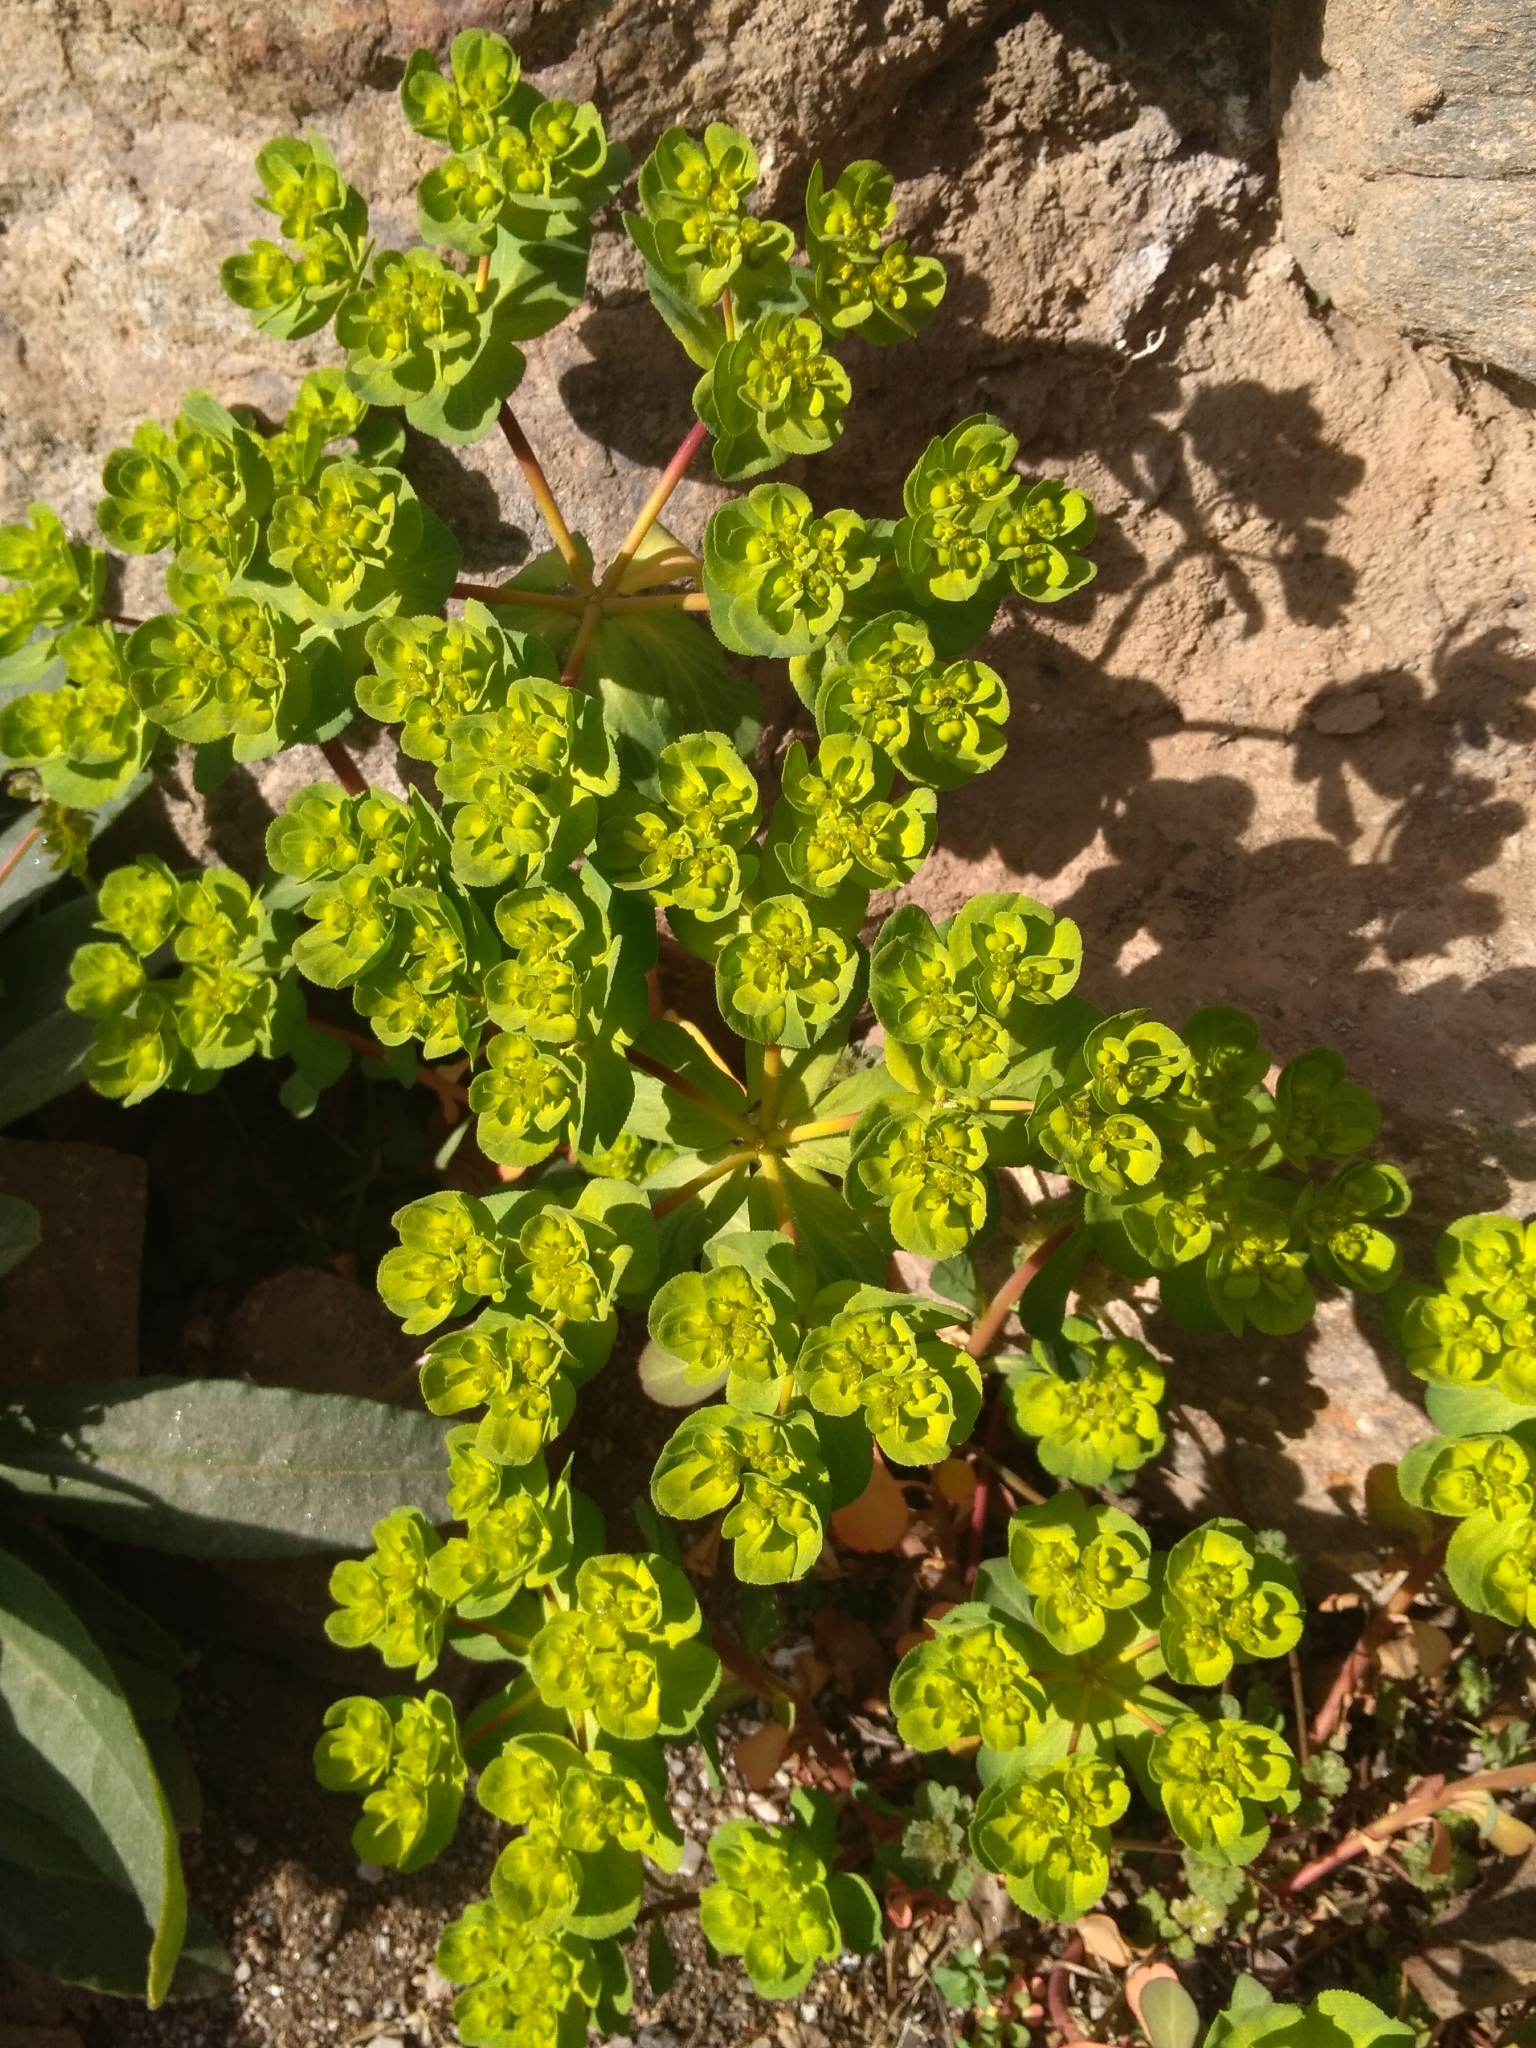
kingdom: Plantae
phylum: Tracheophyta
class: Magnoliopsida
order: Malpighiales
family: Euphorbiaceae
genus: Euphorbia
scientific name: Euphorbia helioscopia
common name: Sun spurge
